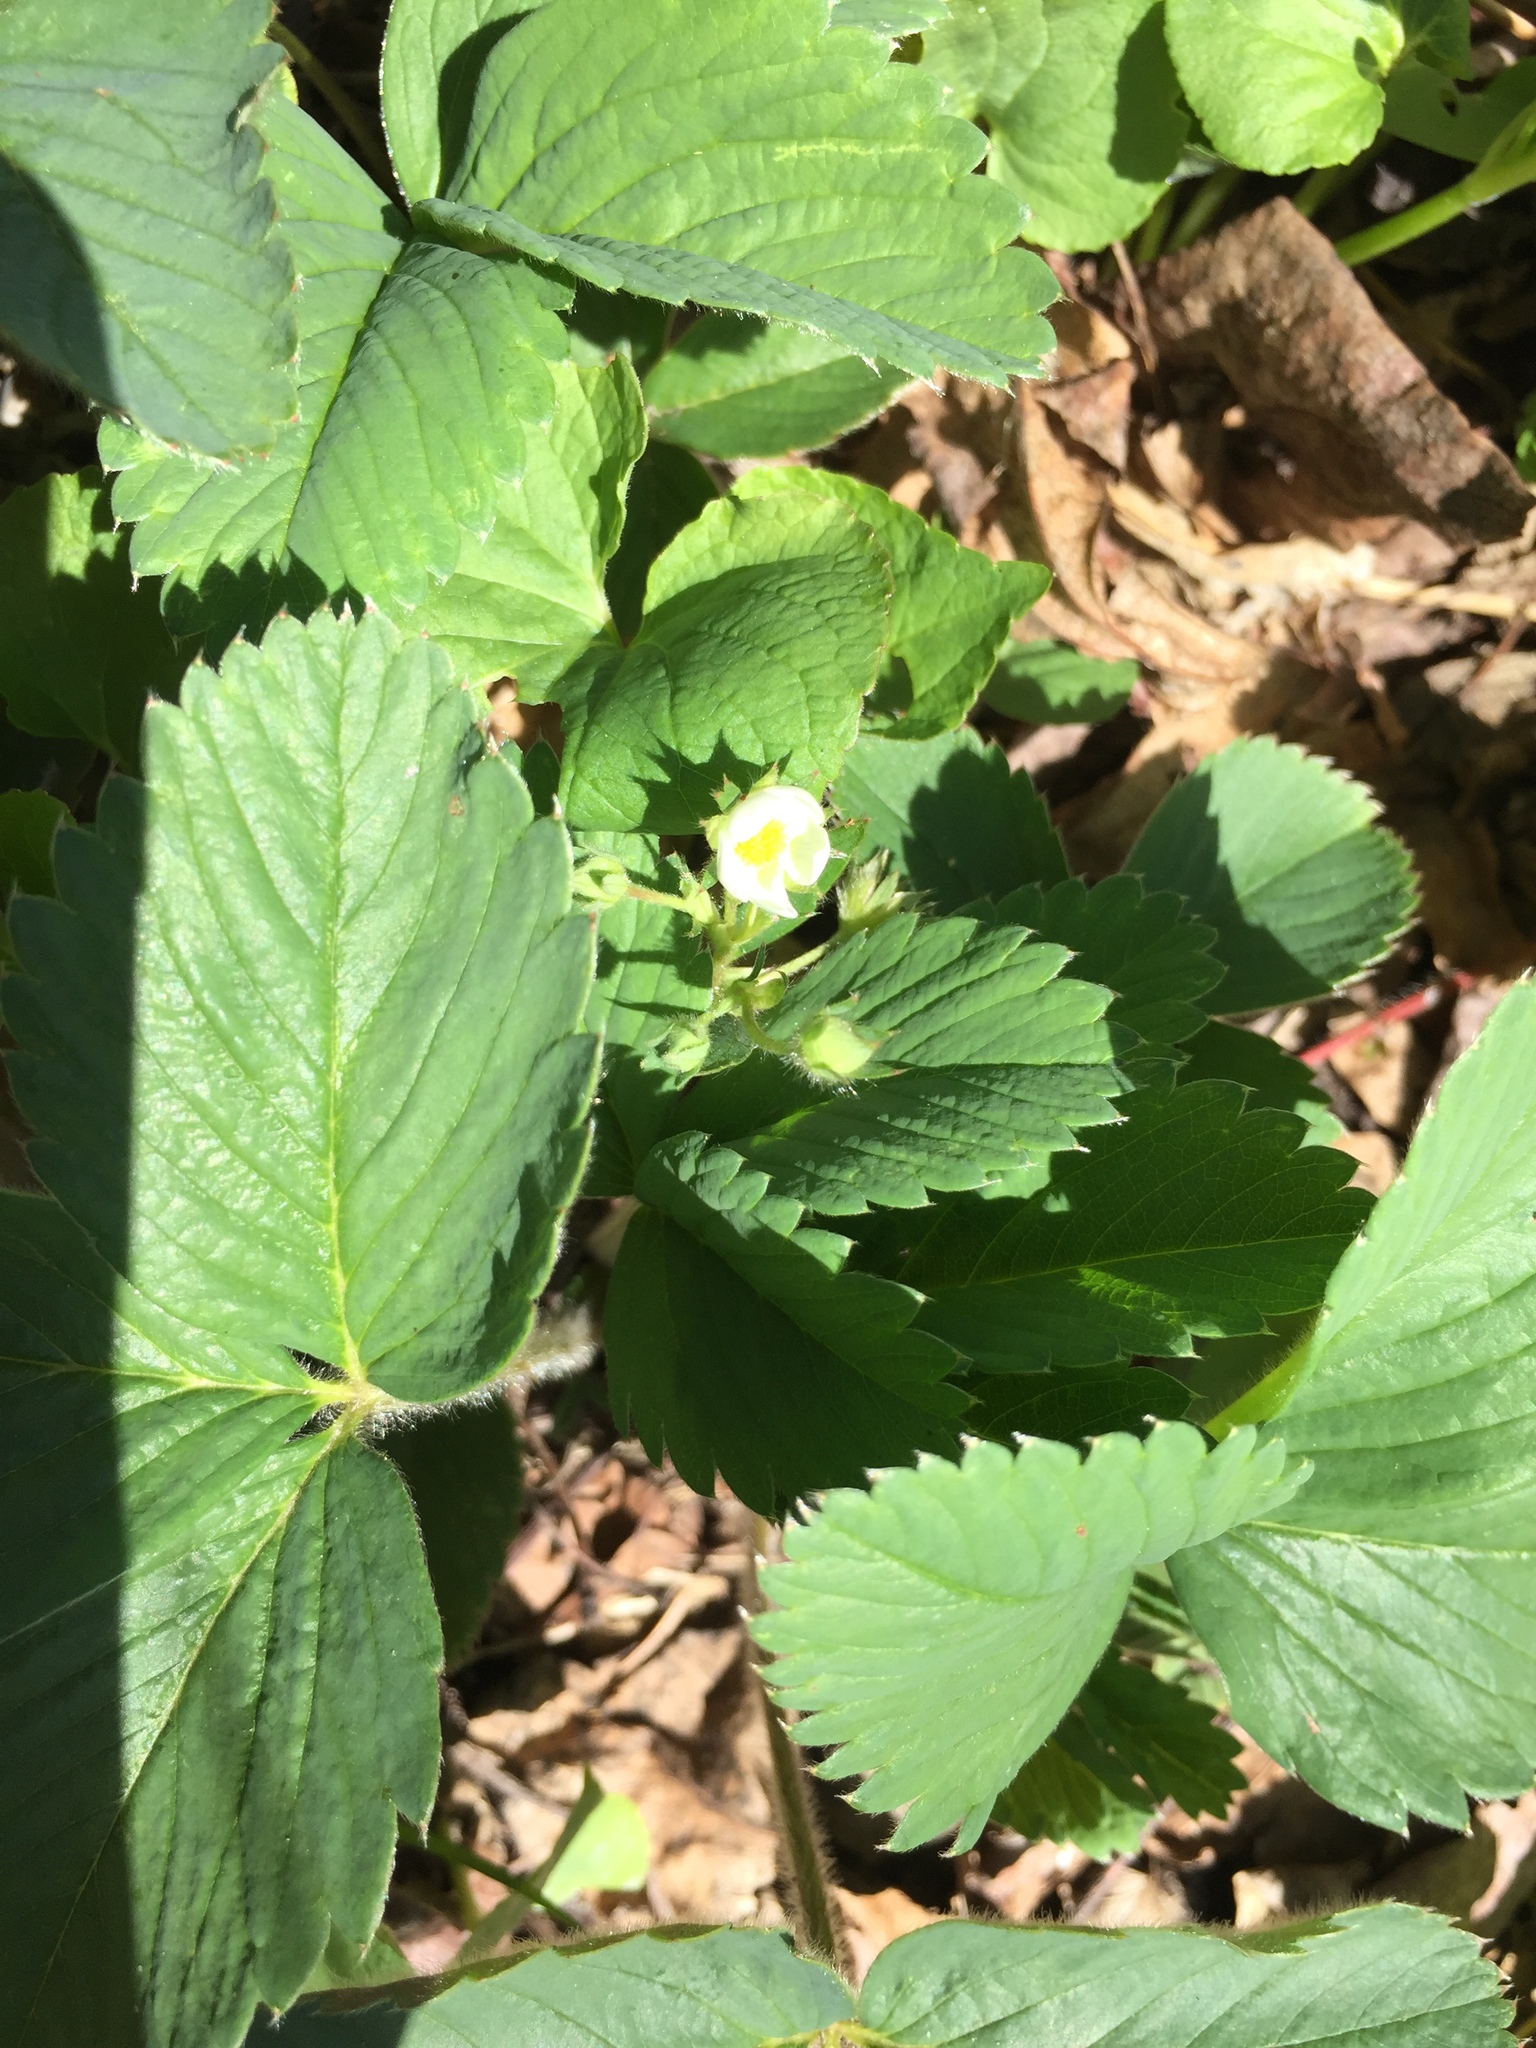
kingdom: Plantae
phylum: Tracheophyta
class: Magnoliopsida
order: Rosales
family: Rosaceae
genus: Fragaria
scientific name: Fragaria virginiana
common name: Thickleaved wild strawberry
